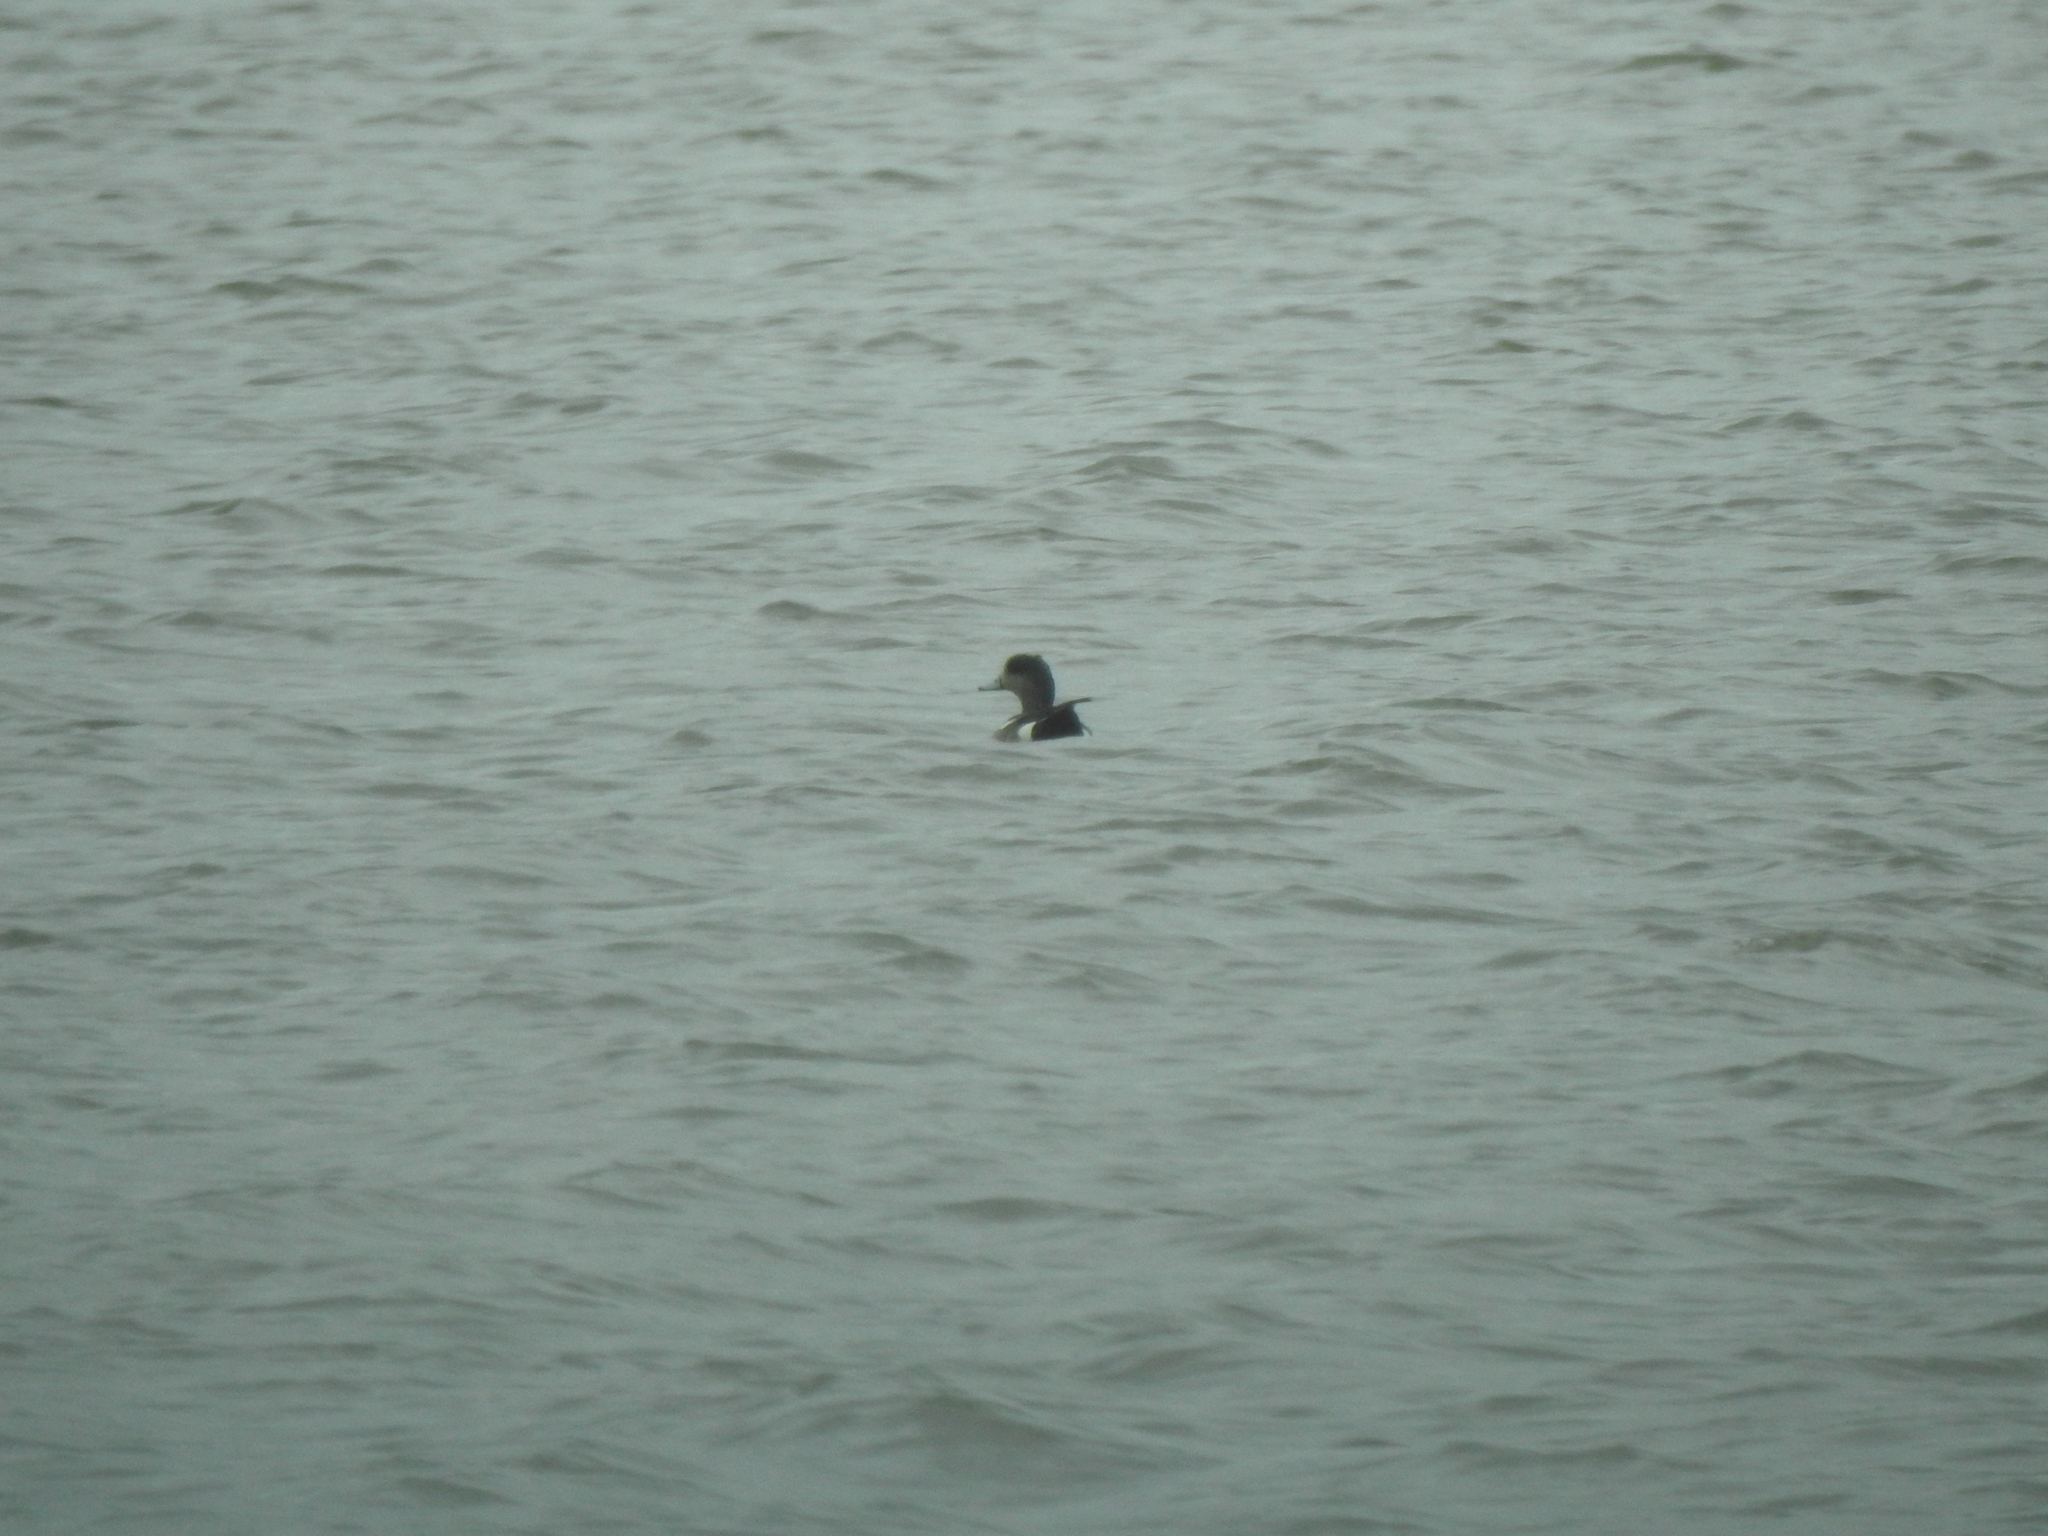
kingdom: Animalia
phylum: Chordata
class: Aves
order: Anseriformes
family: Anatidae
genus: Mareca
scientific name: Mareca americana
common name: American wigeon
